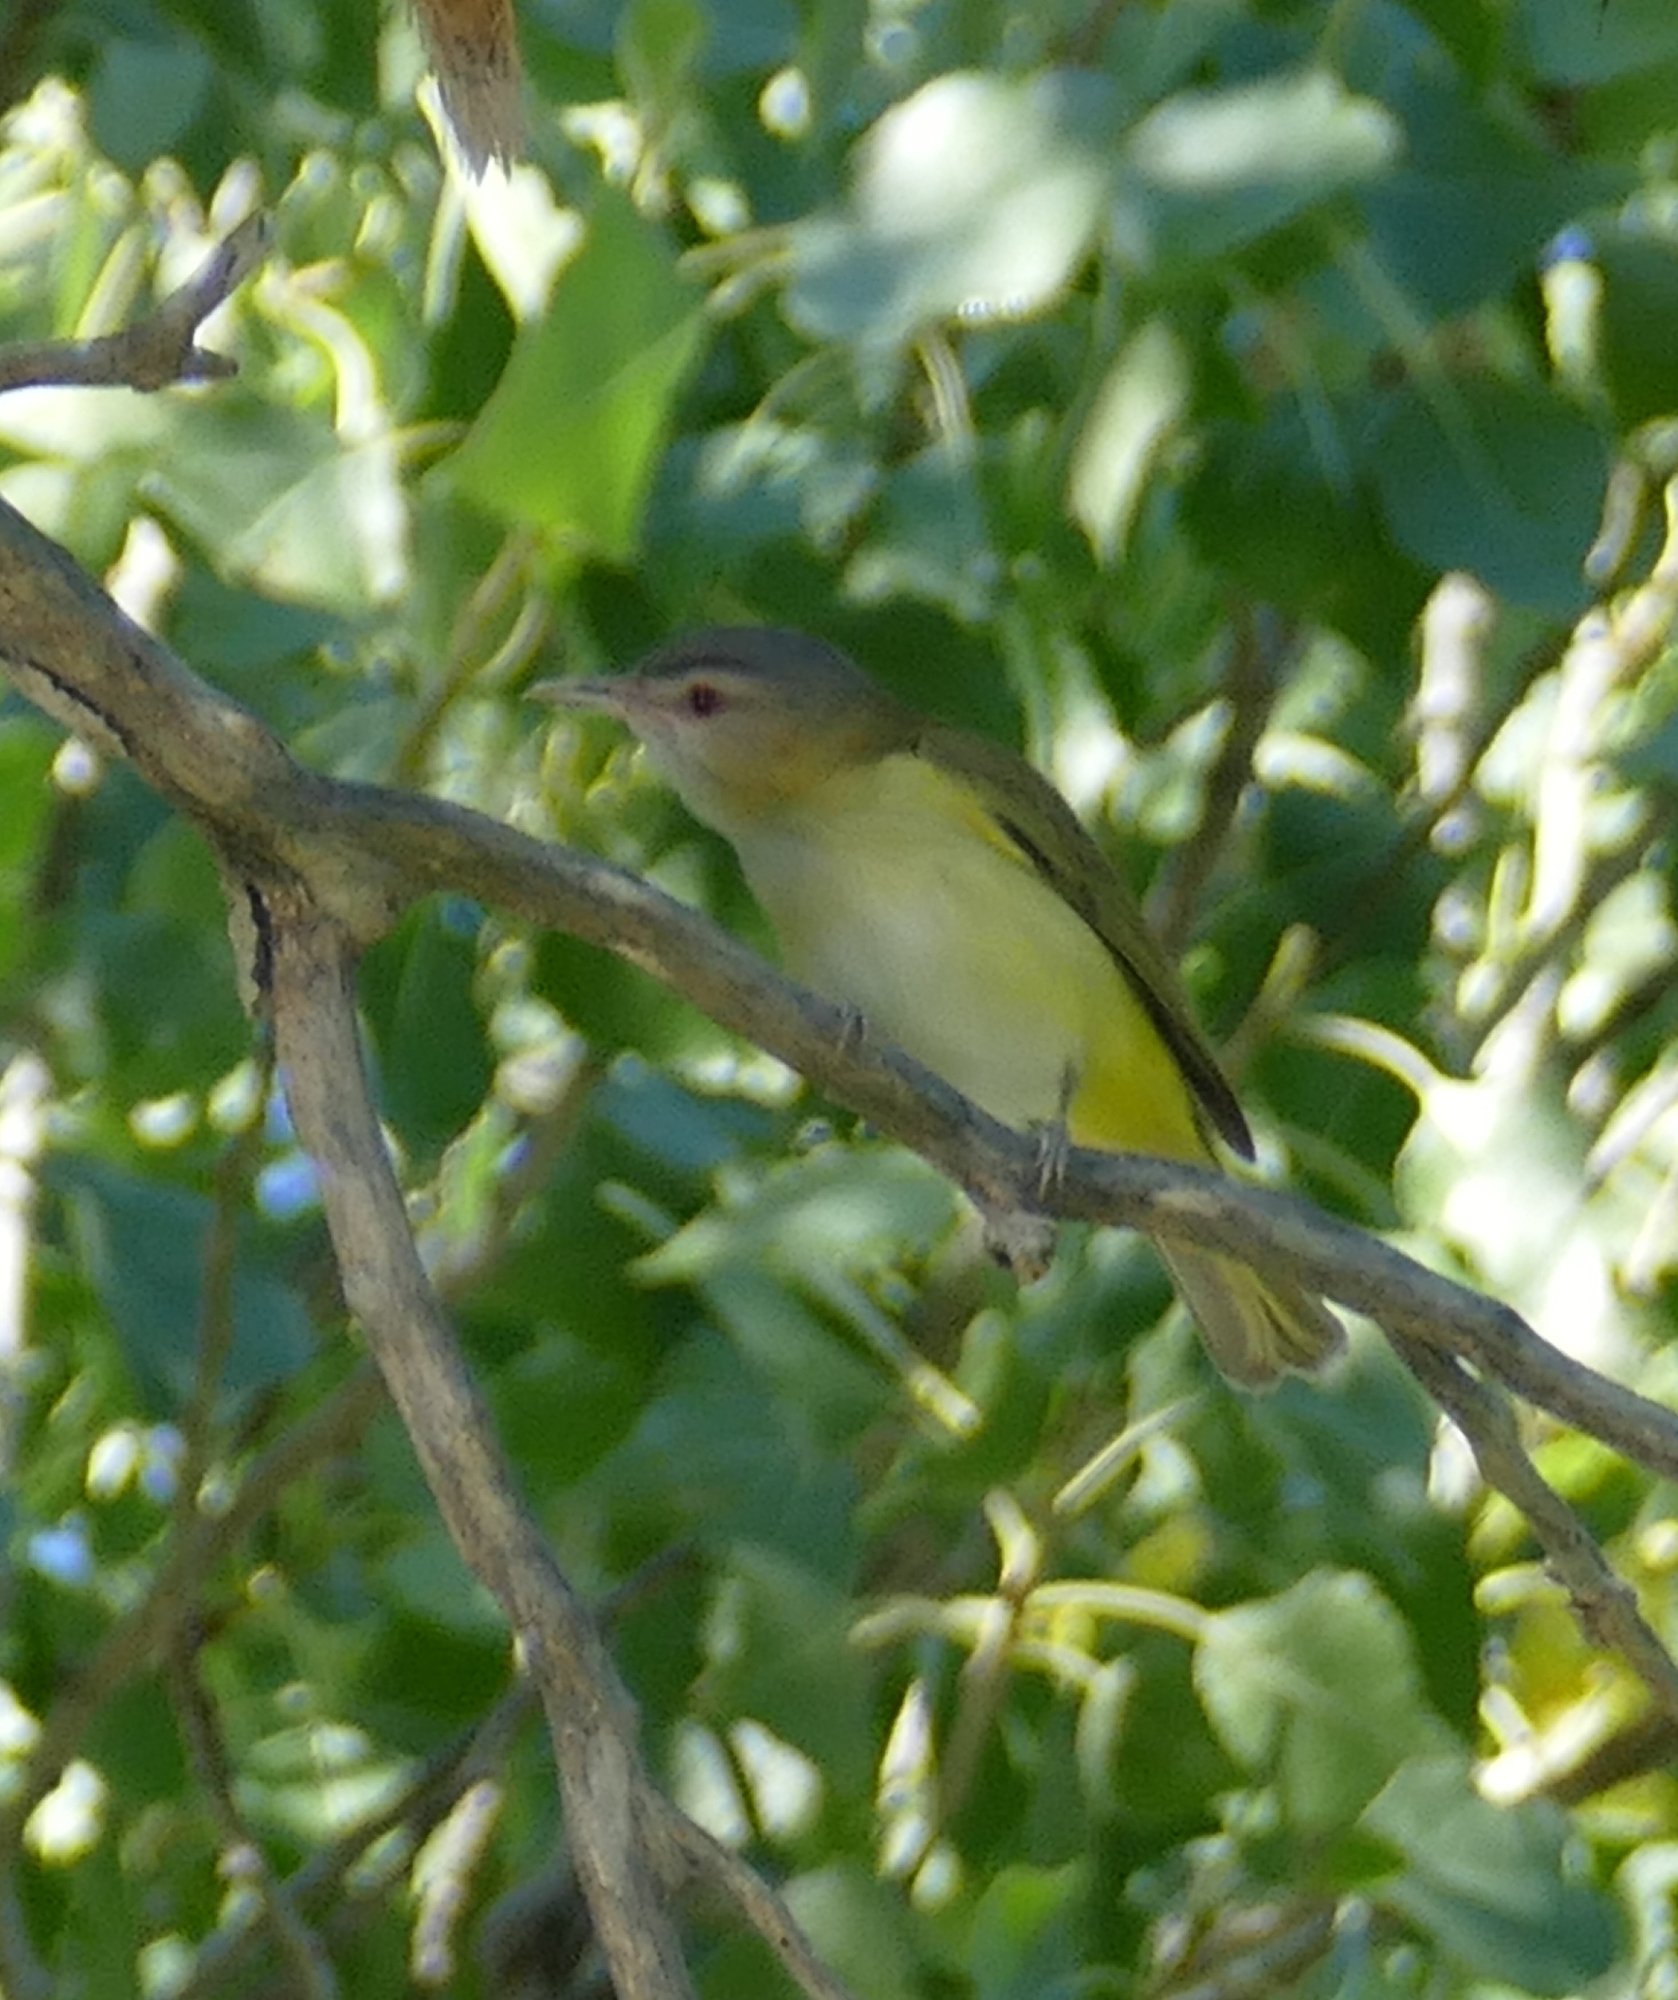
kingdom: Animalia
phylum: Chordata
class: Aves
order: Passeriformes
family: Vireonidae
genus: Vireo
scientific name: Vireo flavoviridis
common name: Yellow-green vireo
